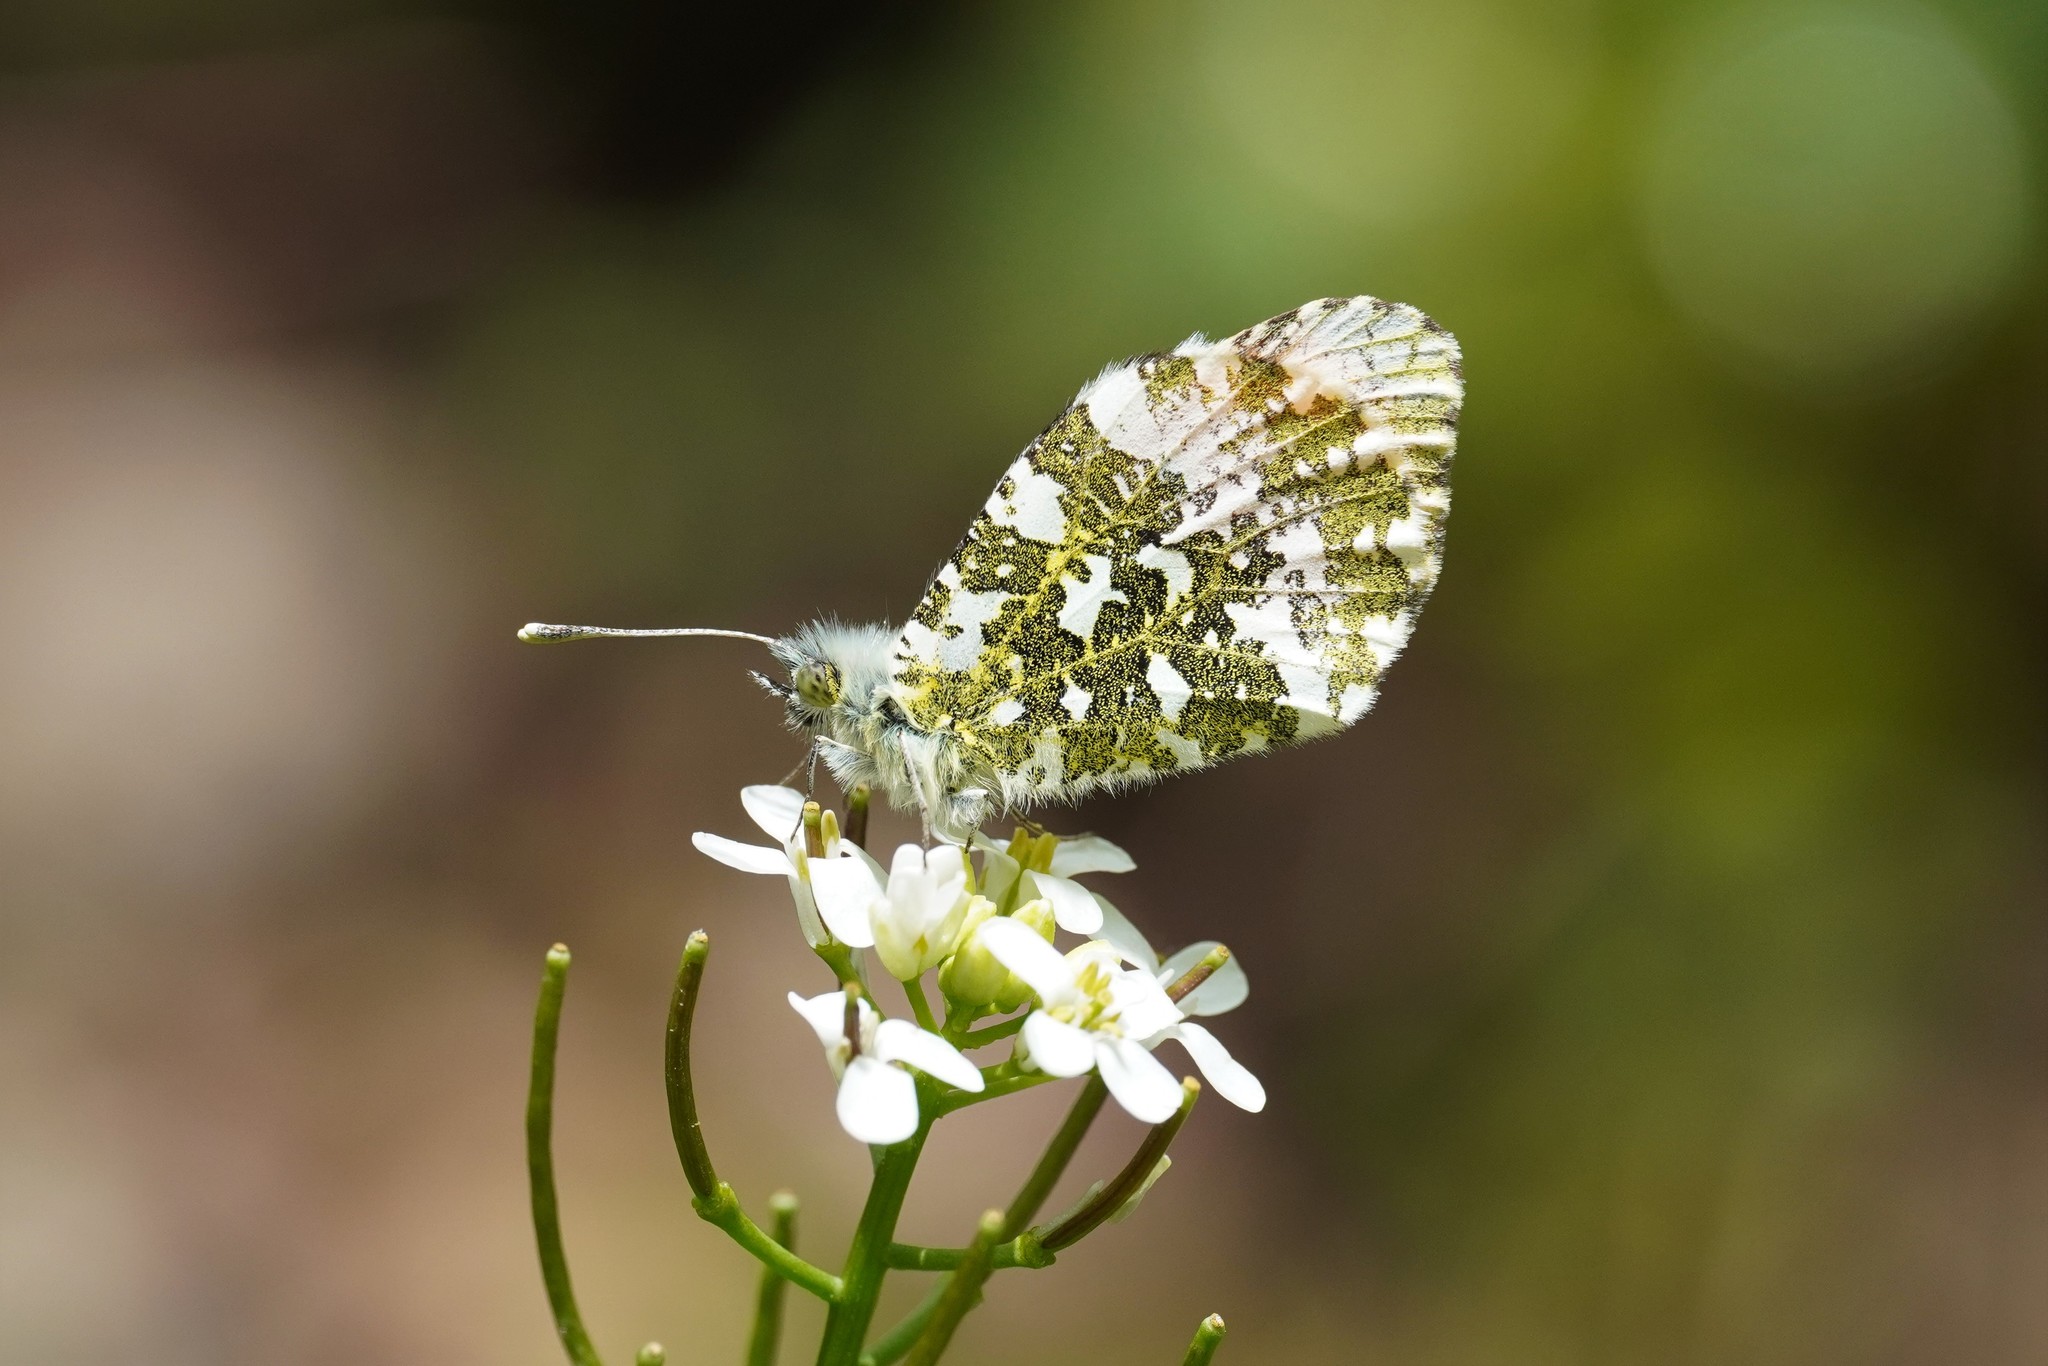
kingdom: Animalia
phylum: Arthropoda
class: Insecta
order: Lepidoptera
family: Pieridae
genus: Anthocharis
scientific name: Anthocharis cardamines
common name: Orange-tip
